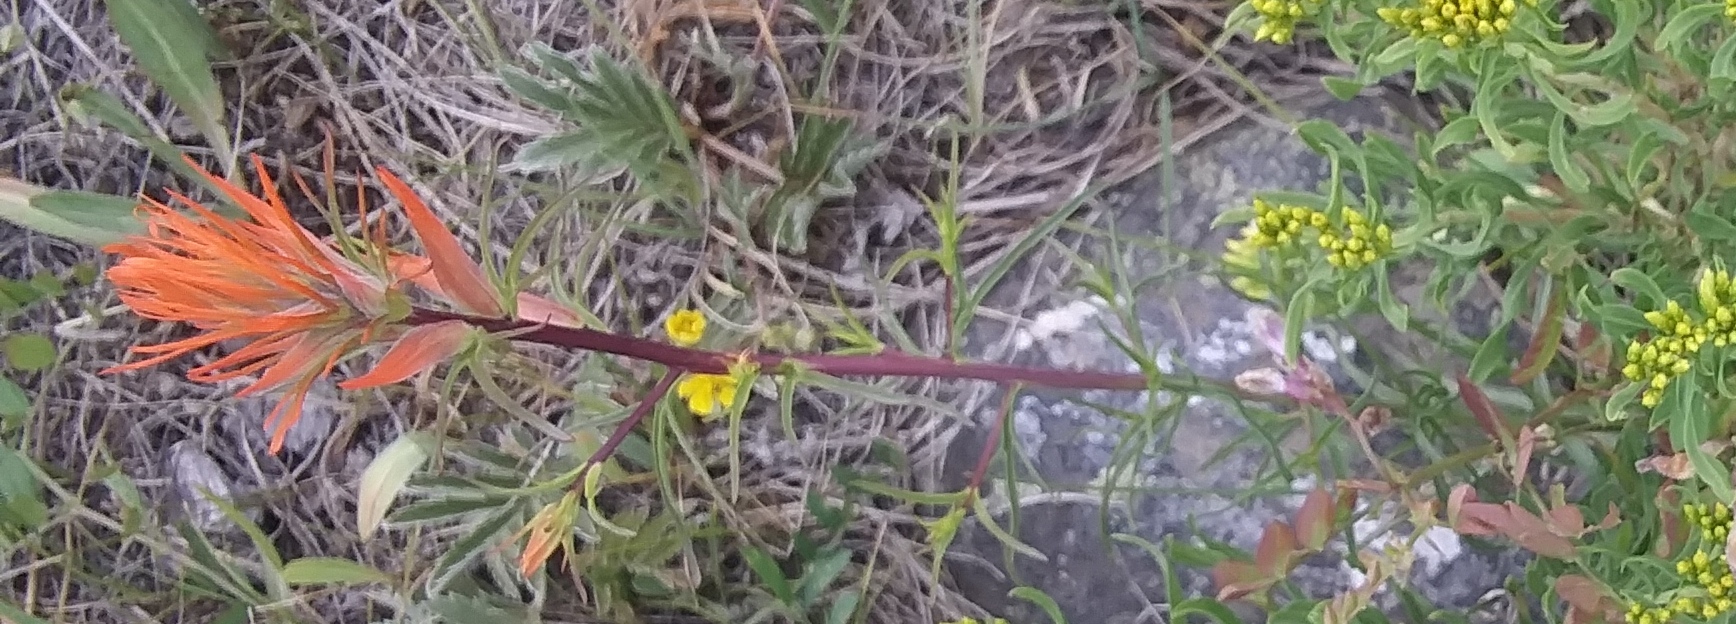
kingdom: Plantae
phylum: Tracheophyta
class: Magnoliopsida
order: Lamiales
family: Orobanchaceae
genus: Castilleja
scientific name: Castilleja linariifolia
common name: Wyoming paintbrush
